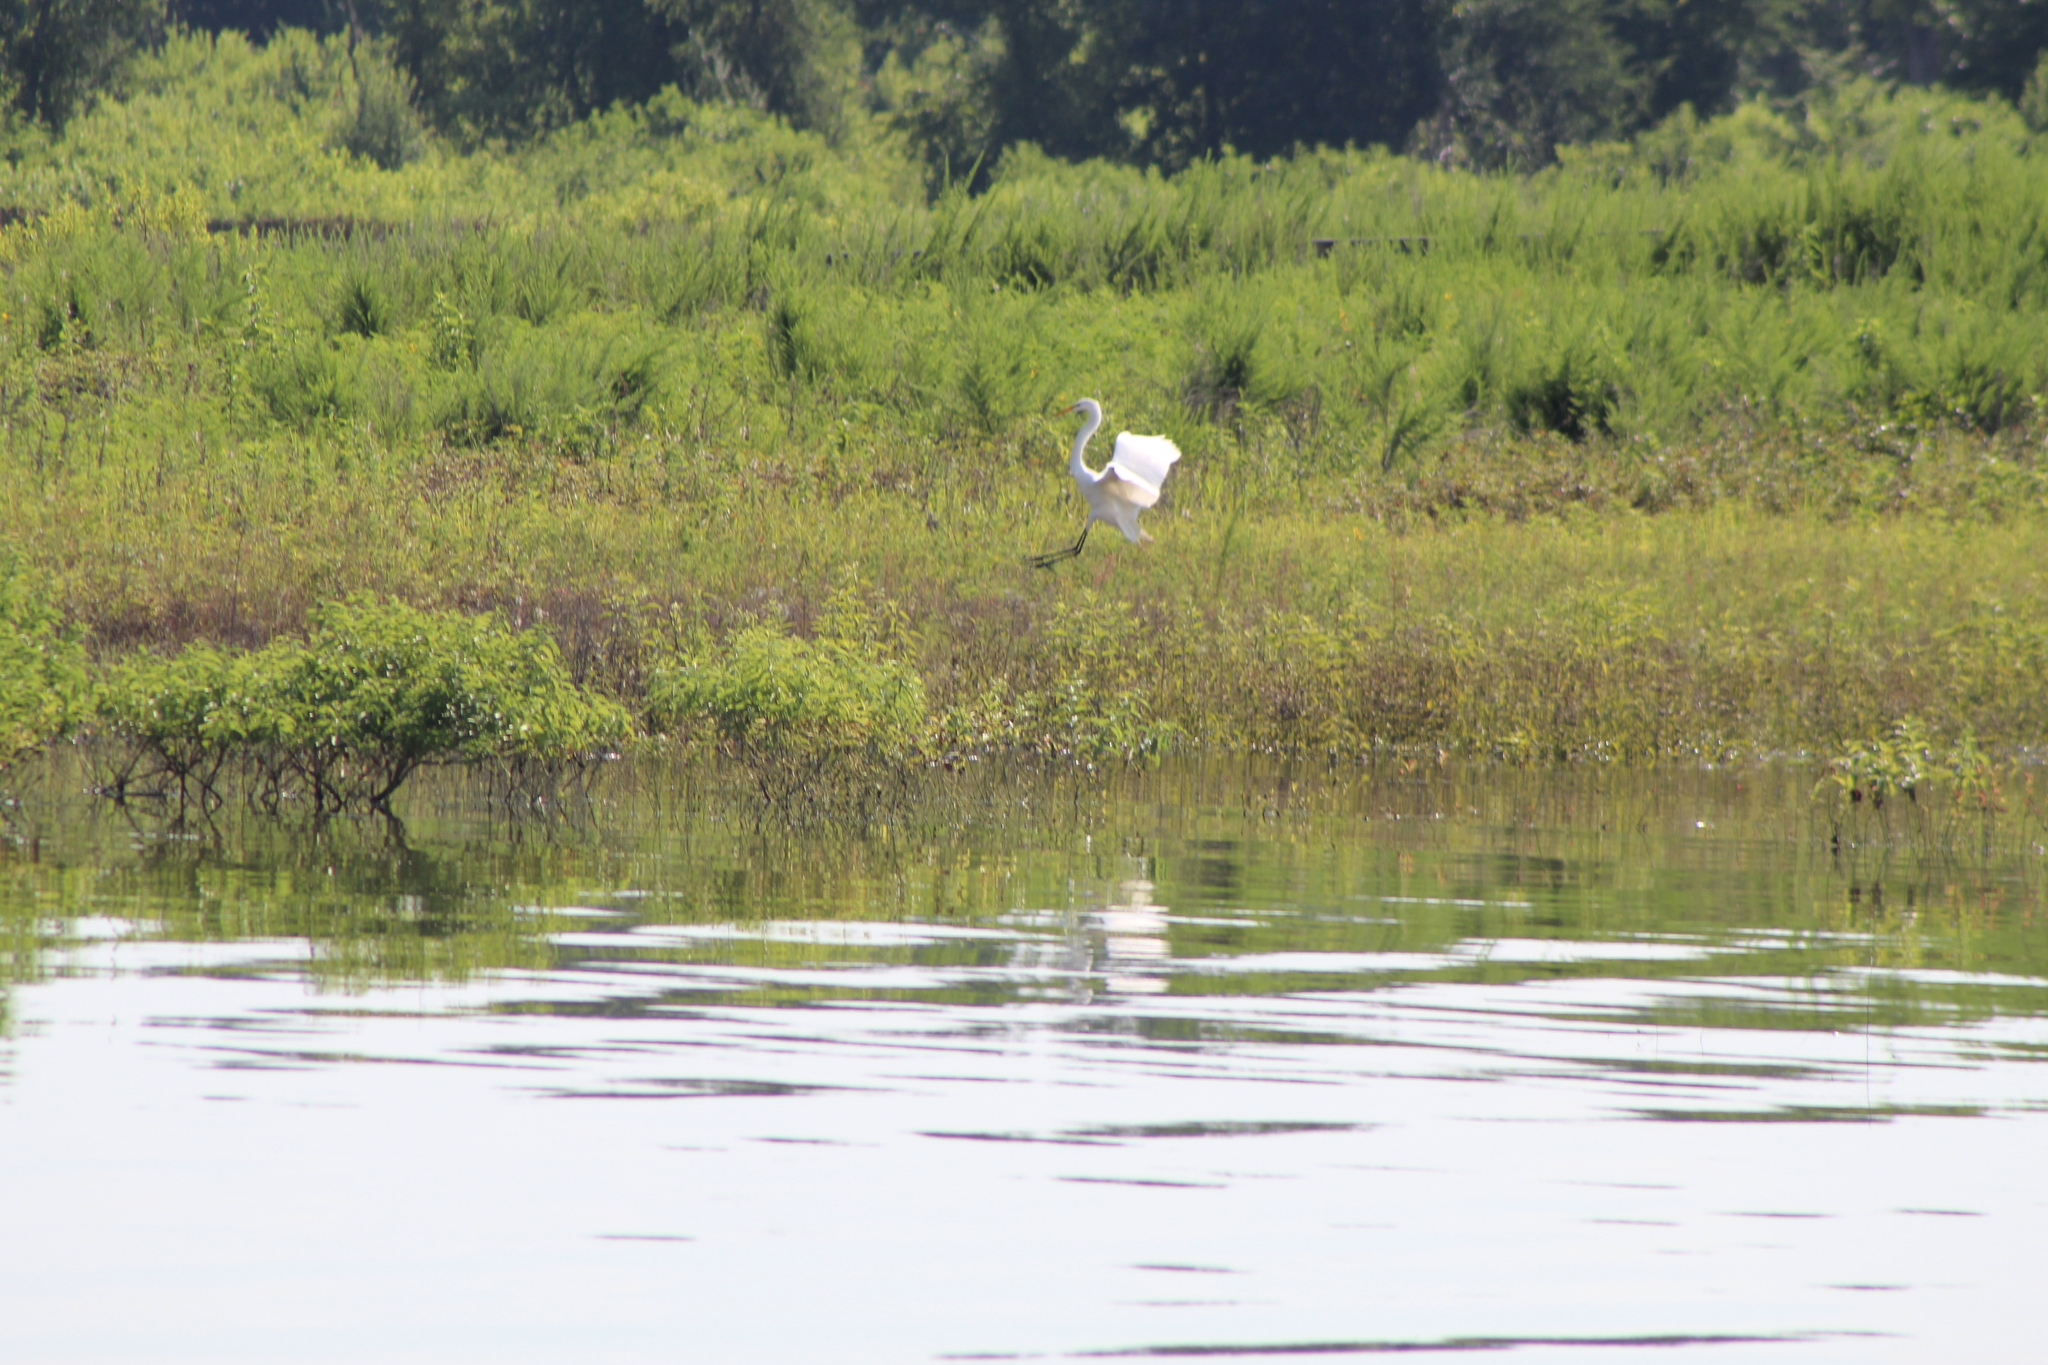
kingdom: Animalia
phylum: Chordata
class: Aves
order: Pelecaniformes
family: Ardeidae
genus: Ardea
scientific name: Ardea alba
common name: Great egret
